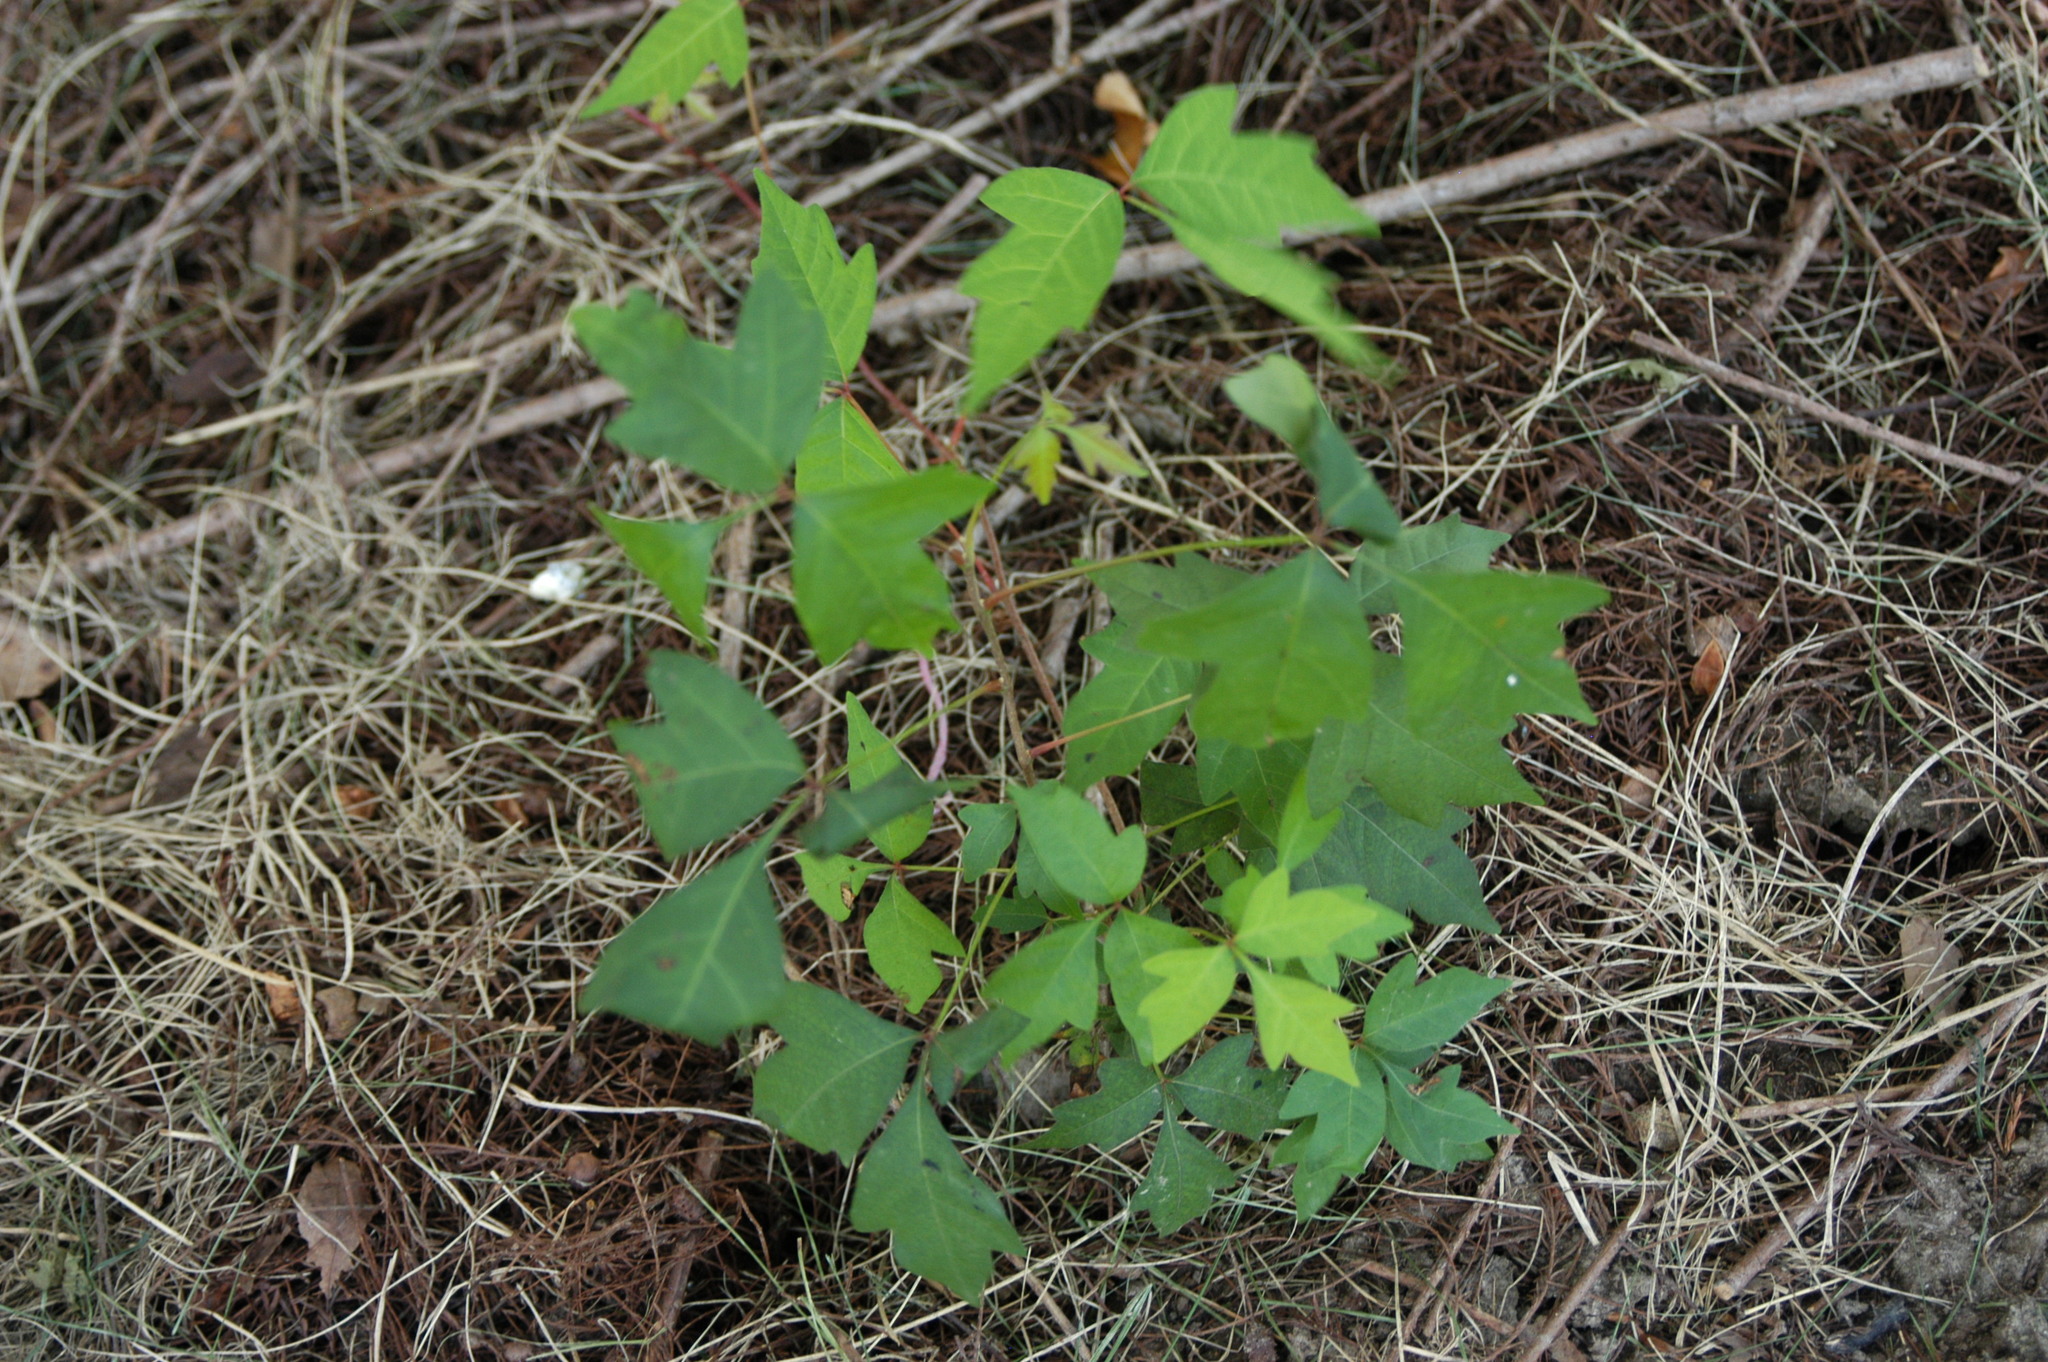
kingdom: Plantae
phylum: Tracheophyta
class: Magnoliopsida
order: Sapindales
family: Anacardiaceae
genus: Toxicodendron
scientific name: Toxicodendron radicans
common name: Poison ivy
